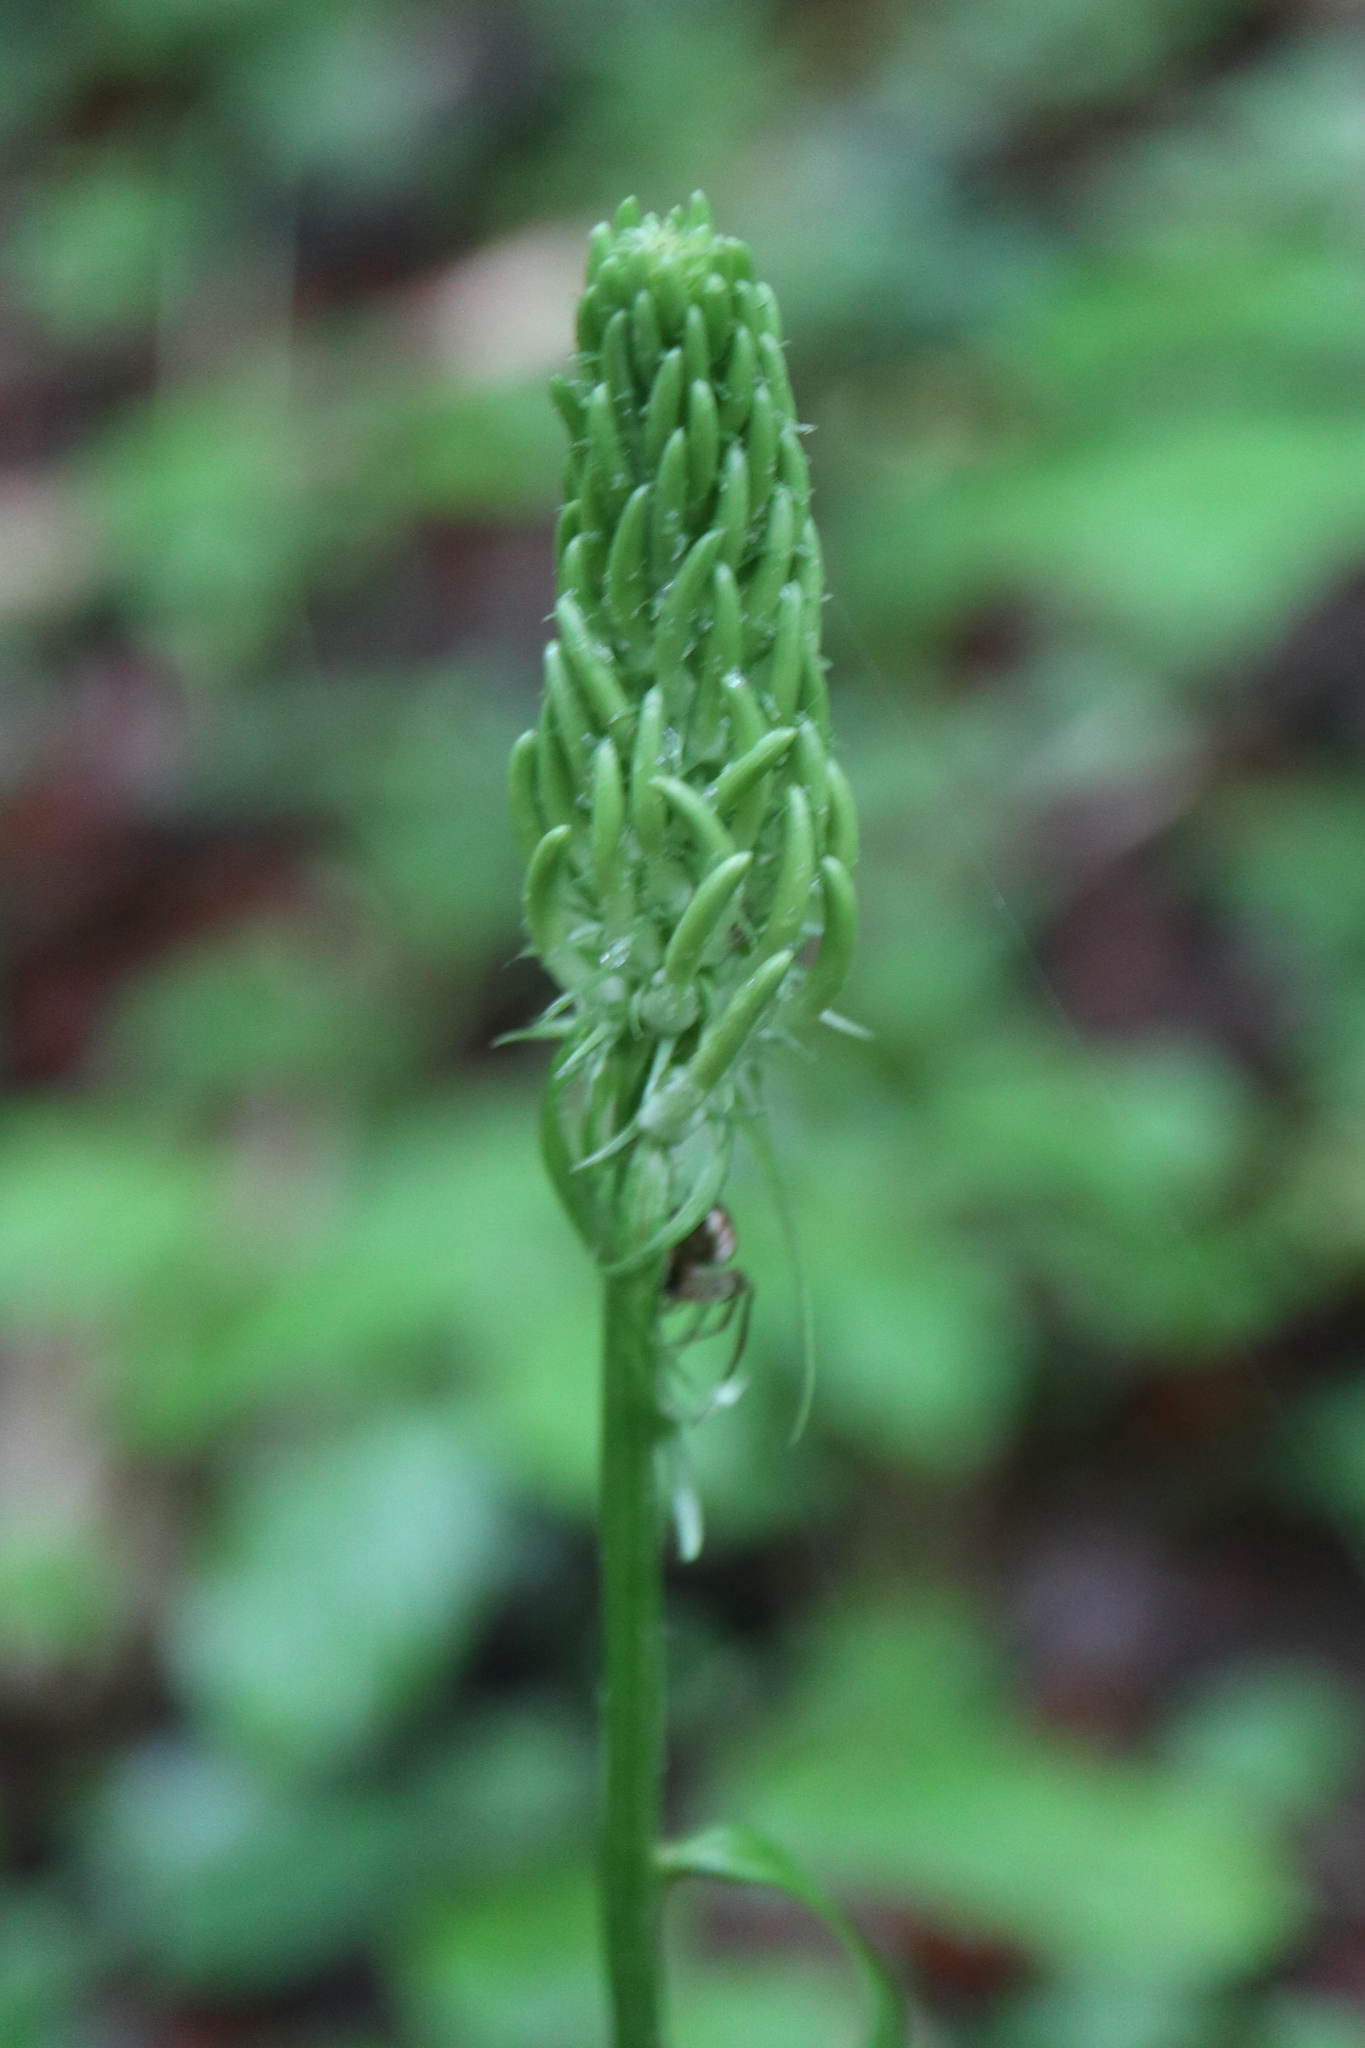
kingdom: Plantae
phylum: Tracheophyta
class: Magnoliopsida
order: Asterales
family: Campanulaceae
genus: Phyteuma
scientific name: Phyteuma spicatum
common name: Spiked rampion
